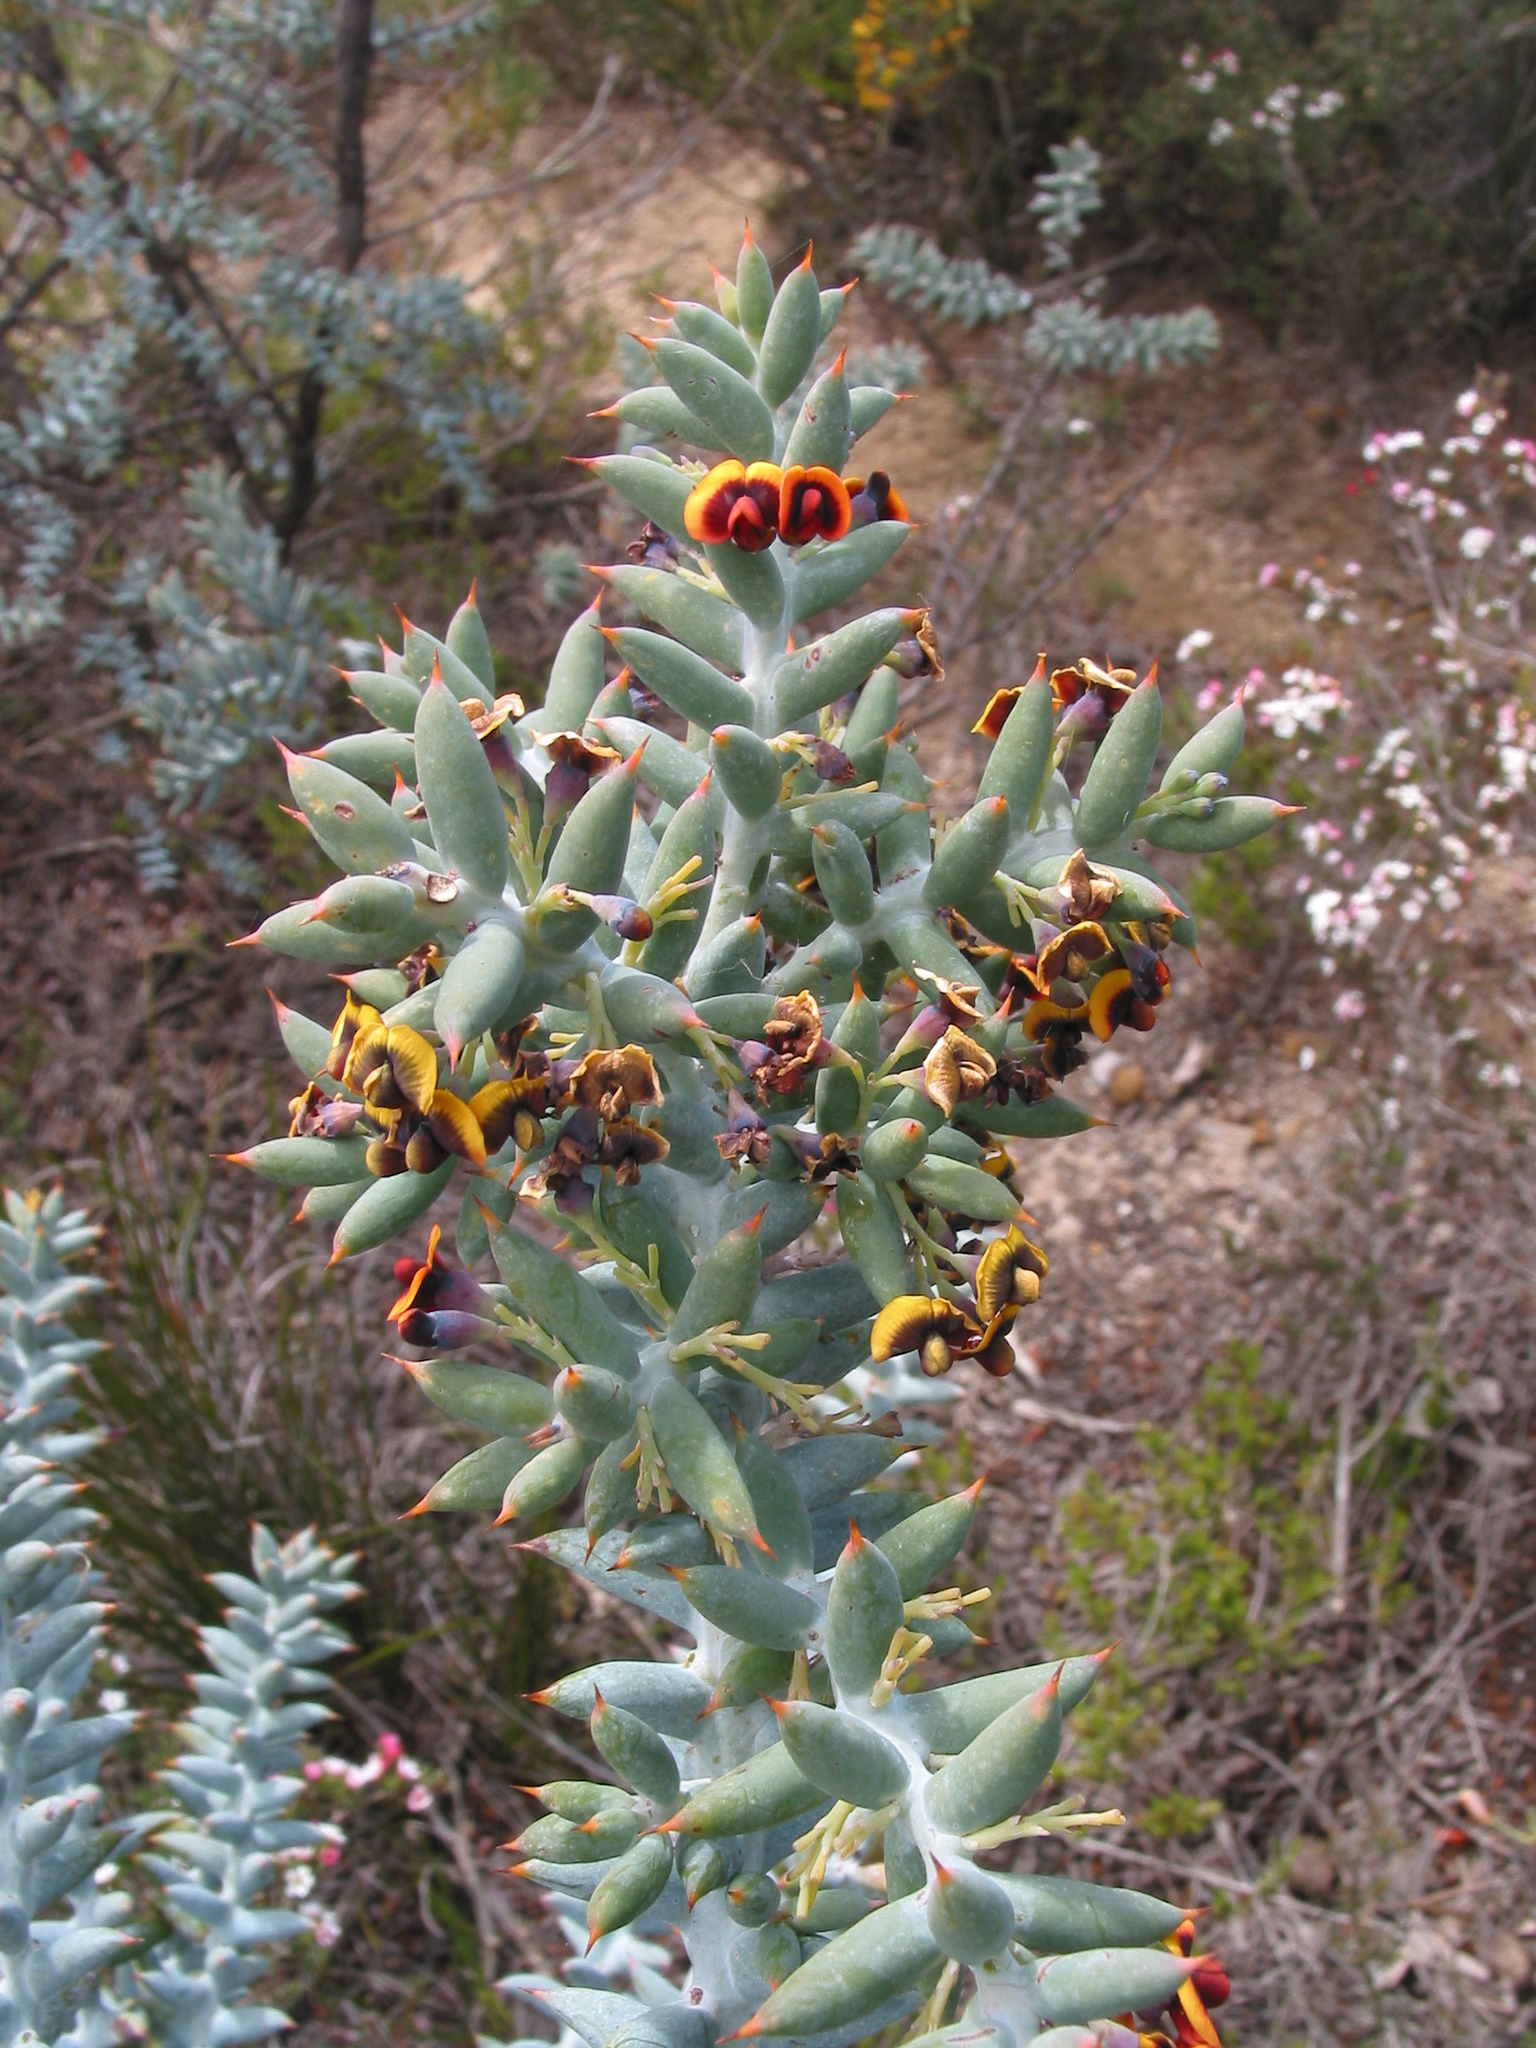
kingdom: Plantae
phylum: Tracheophyta
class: Magnoliopsida
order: Fabales
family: Fabaceae
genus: Daviesia
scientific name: Daviesia pachyphylla
